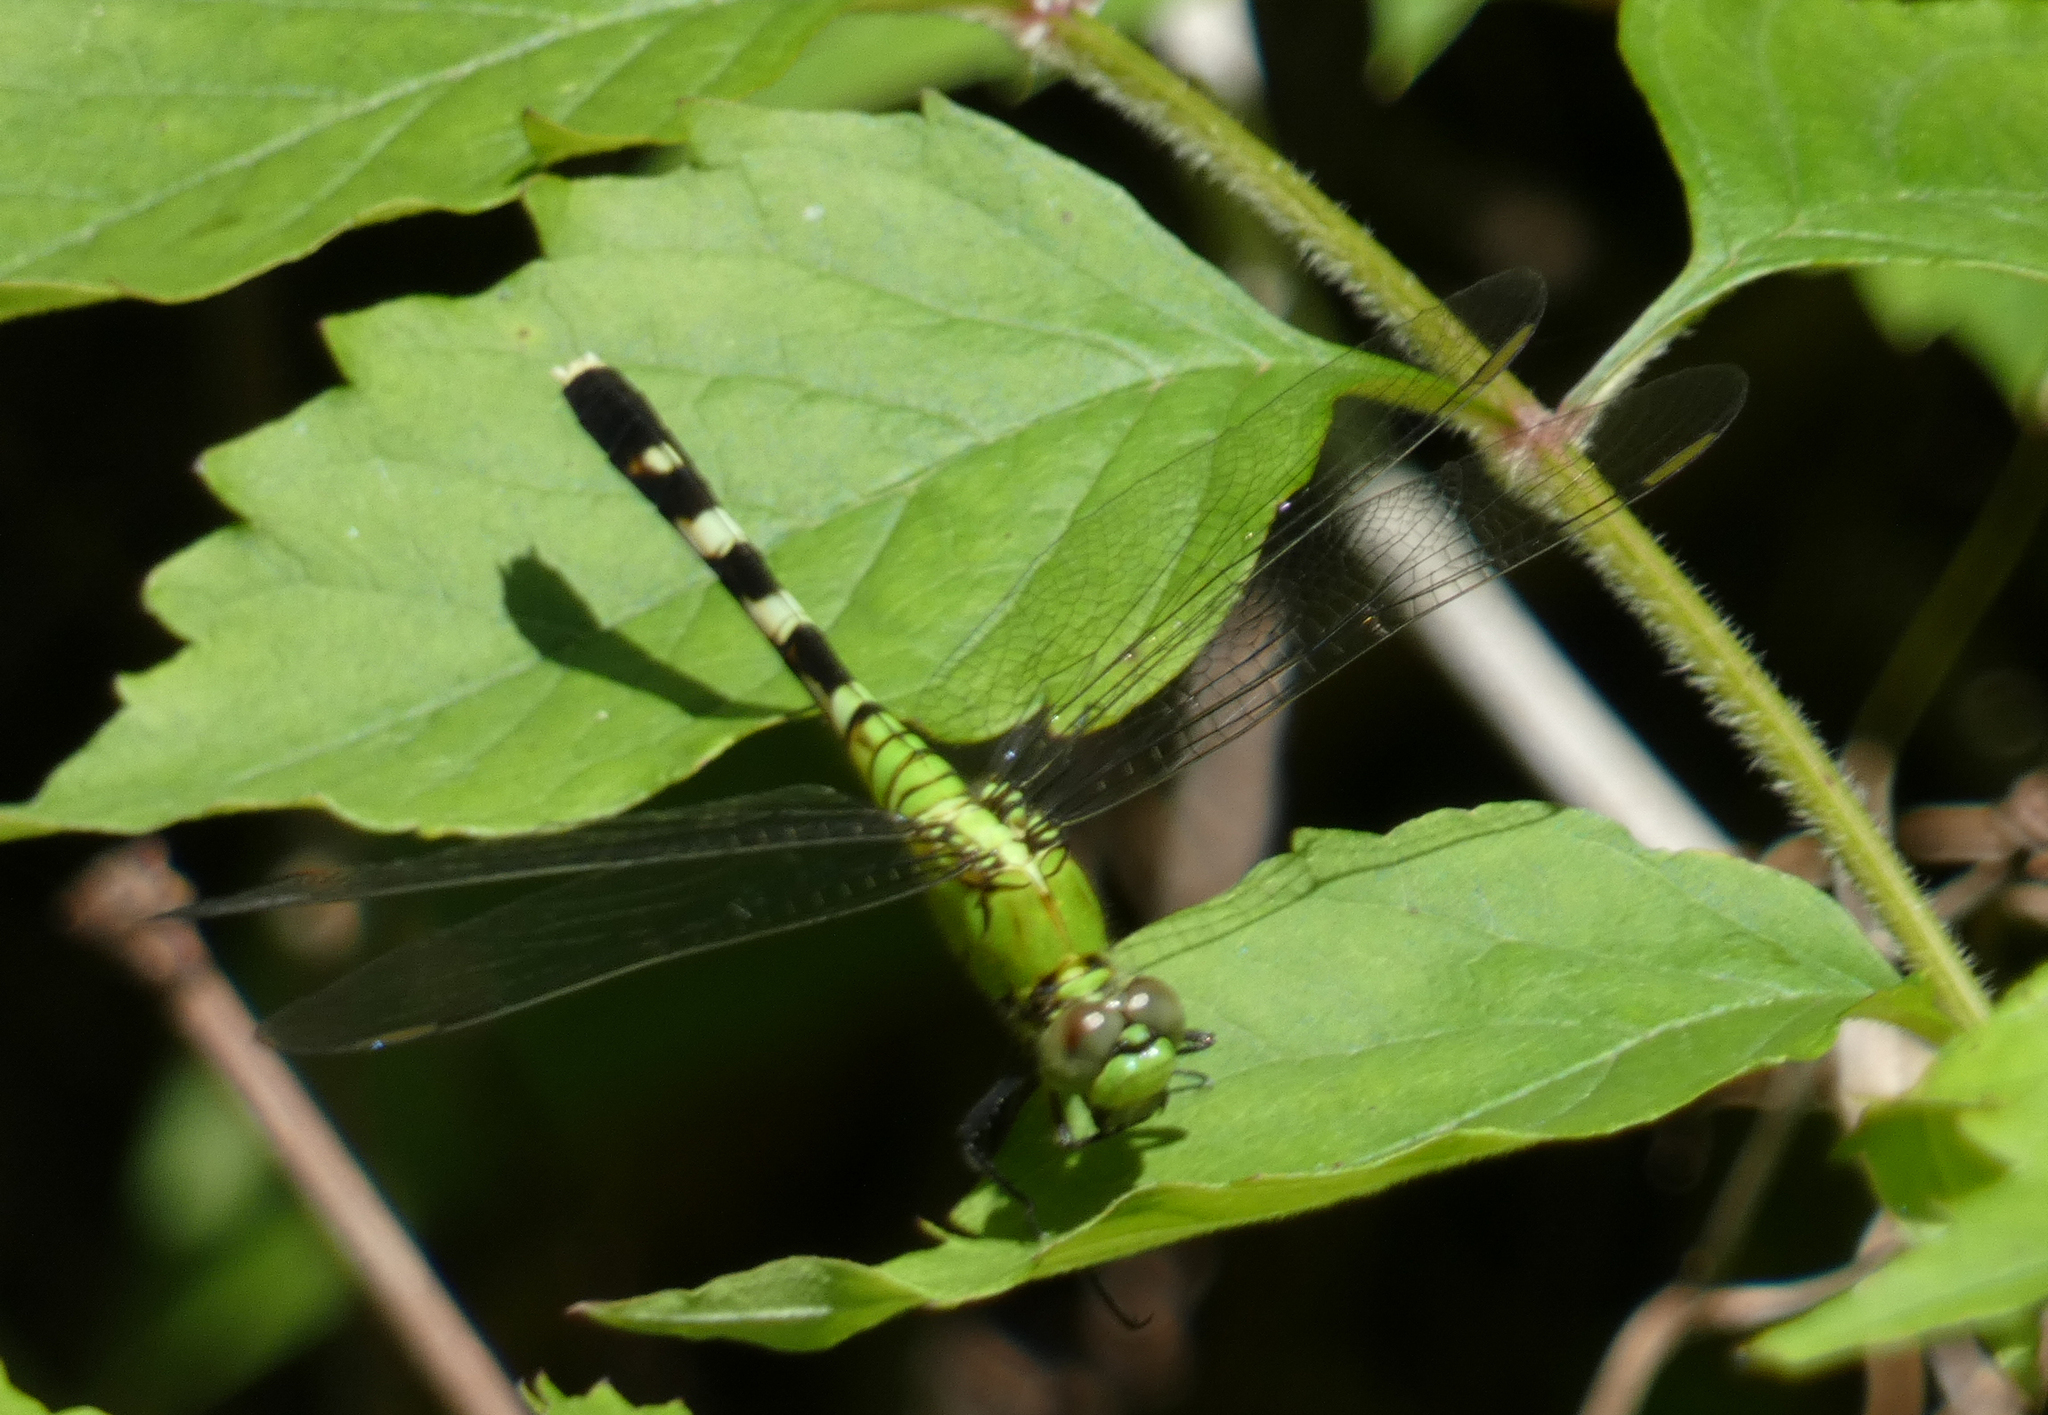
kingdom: Animalia
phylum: Arthropoda
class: Insecta
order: Odonata
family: Libellulidae
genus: Erythemis
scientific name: Erythemis simplicicollis
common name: Eastern pondhawk
